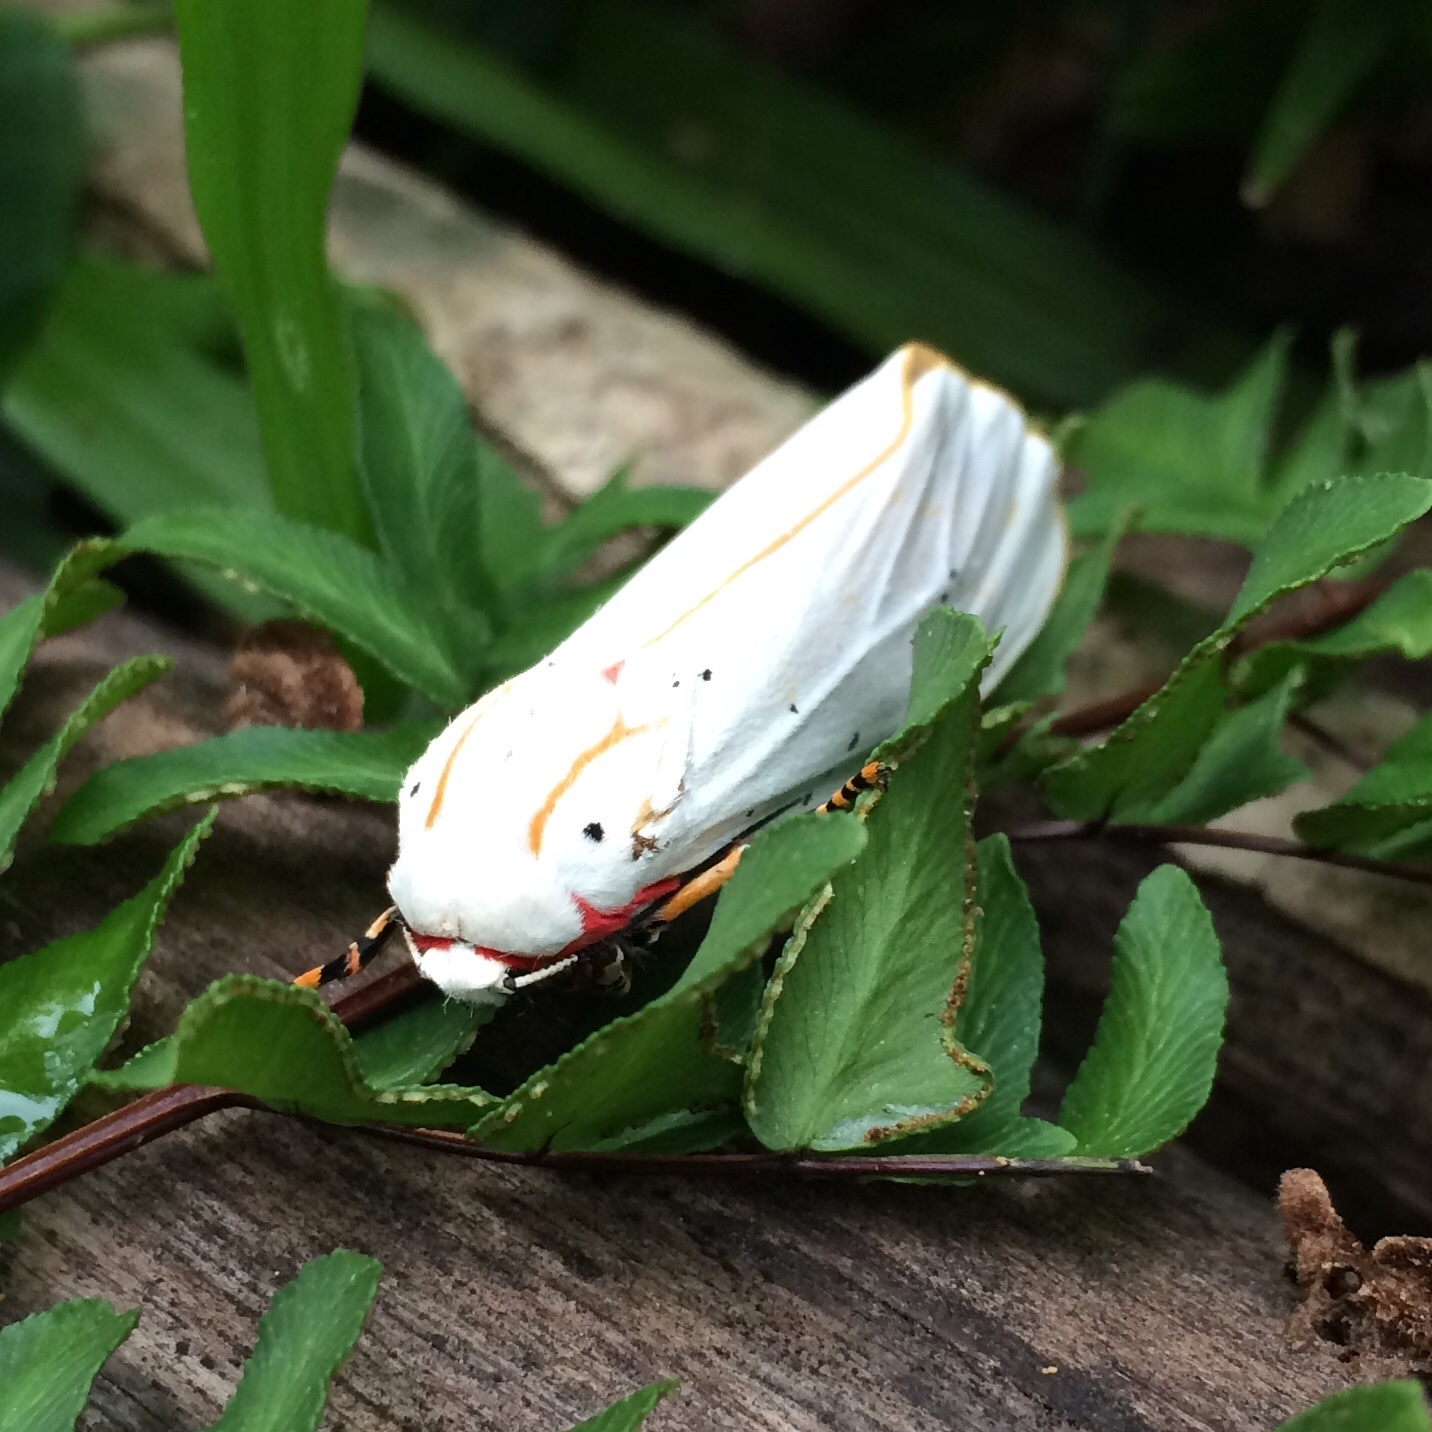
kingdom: Animalia
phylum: Arthropoda
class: Insecta
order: Lepidoptera
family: Erebidae
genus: Rhodogastria
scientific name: Rhodogastria similis
